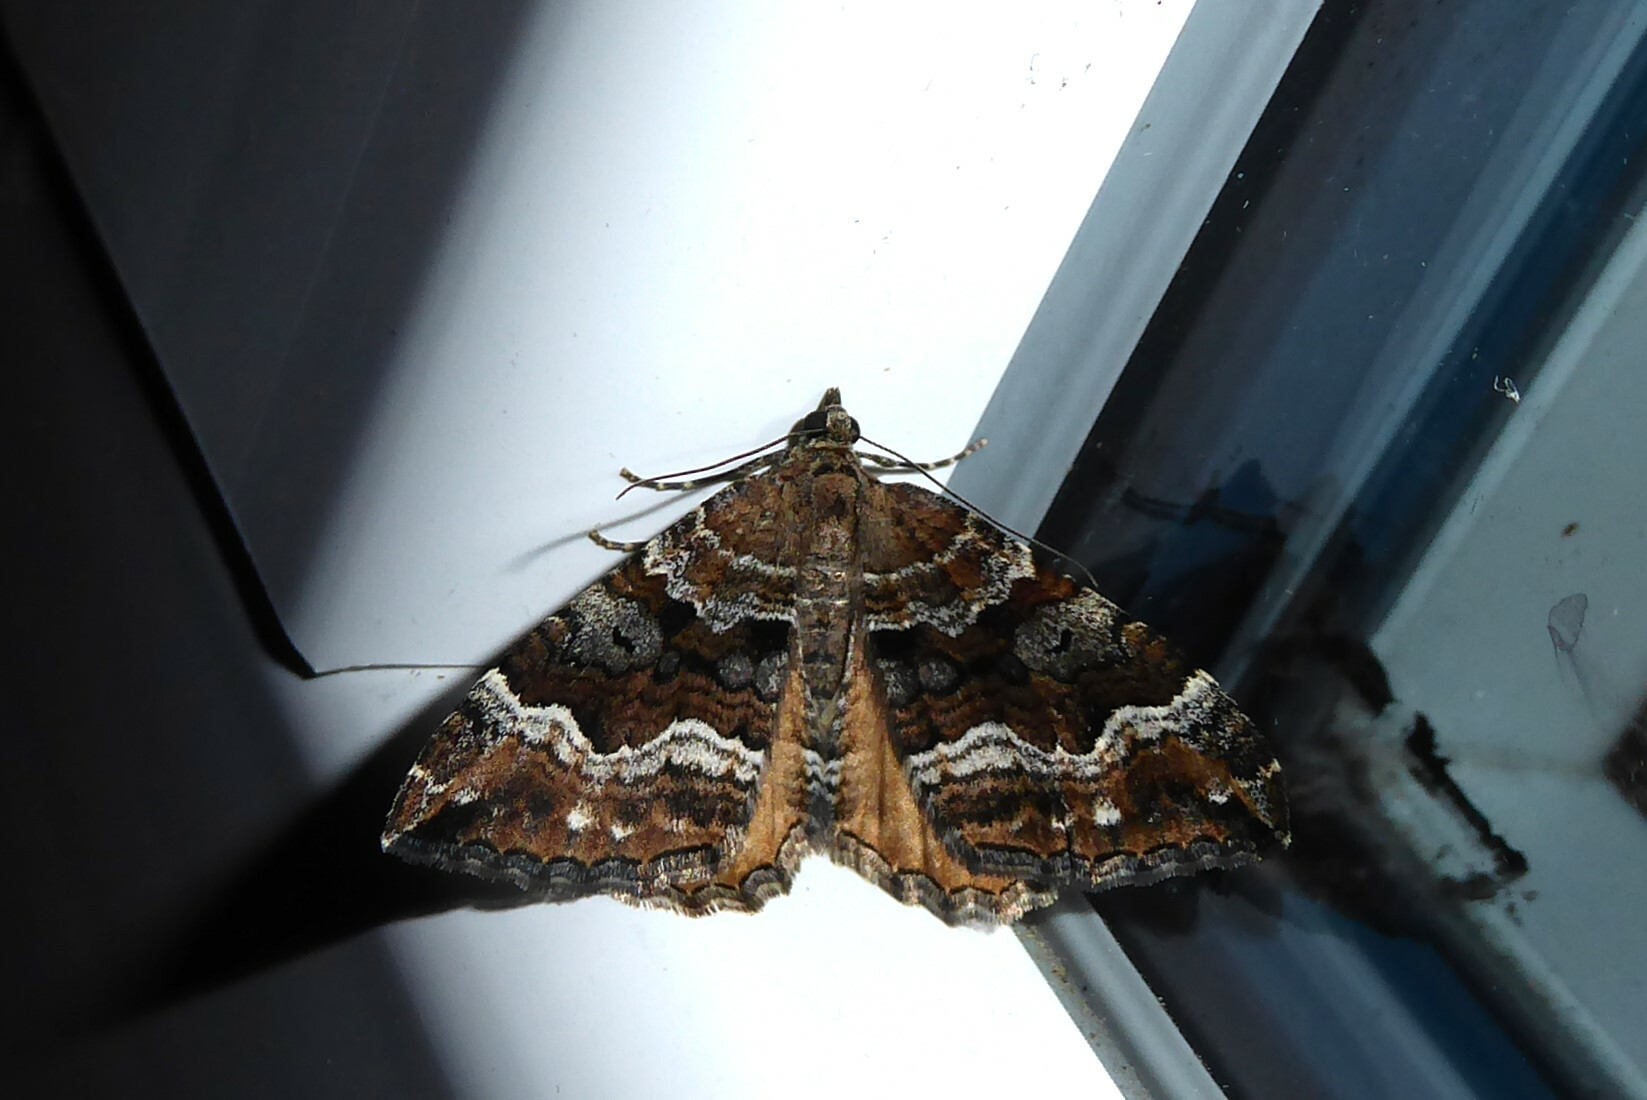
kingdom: Animalia
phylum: Arthropoda
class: Insecta
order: Lepidoptera
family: Geometridae
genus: Hydriomena
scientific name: Hydriomena deltoidata
